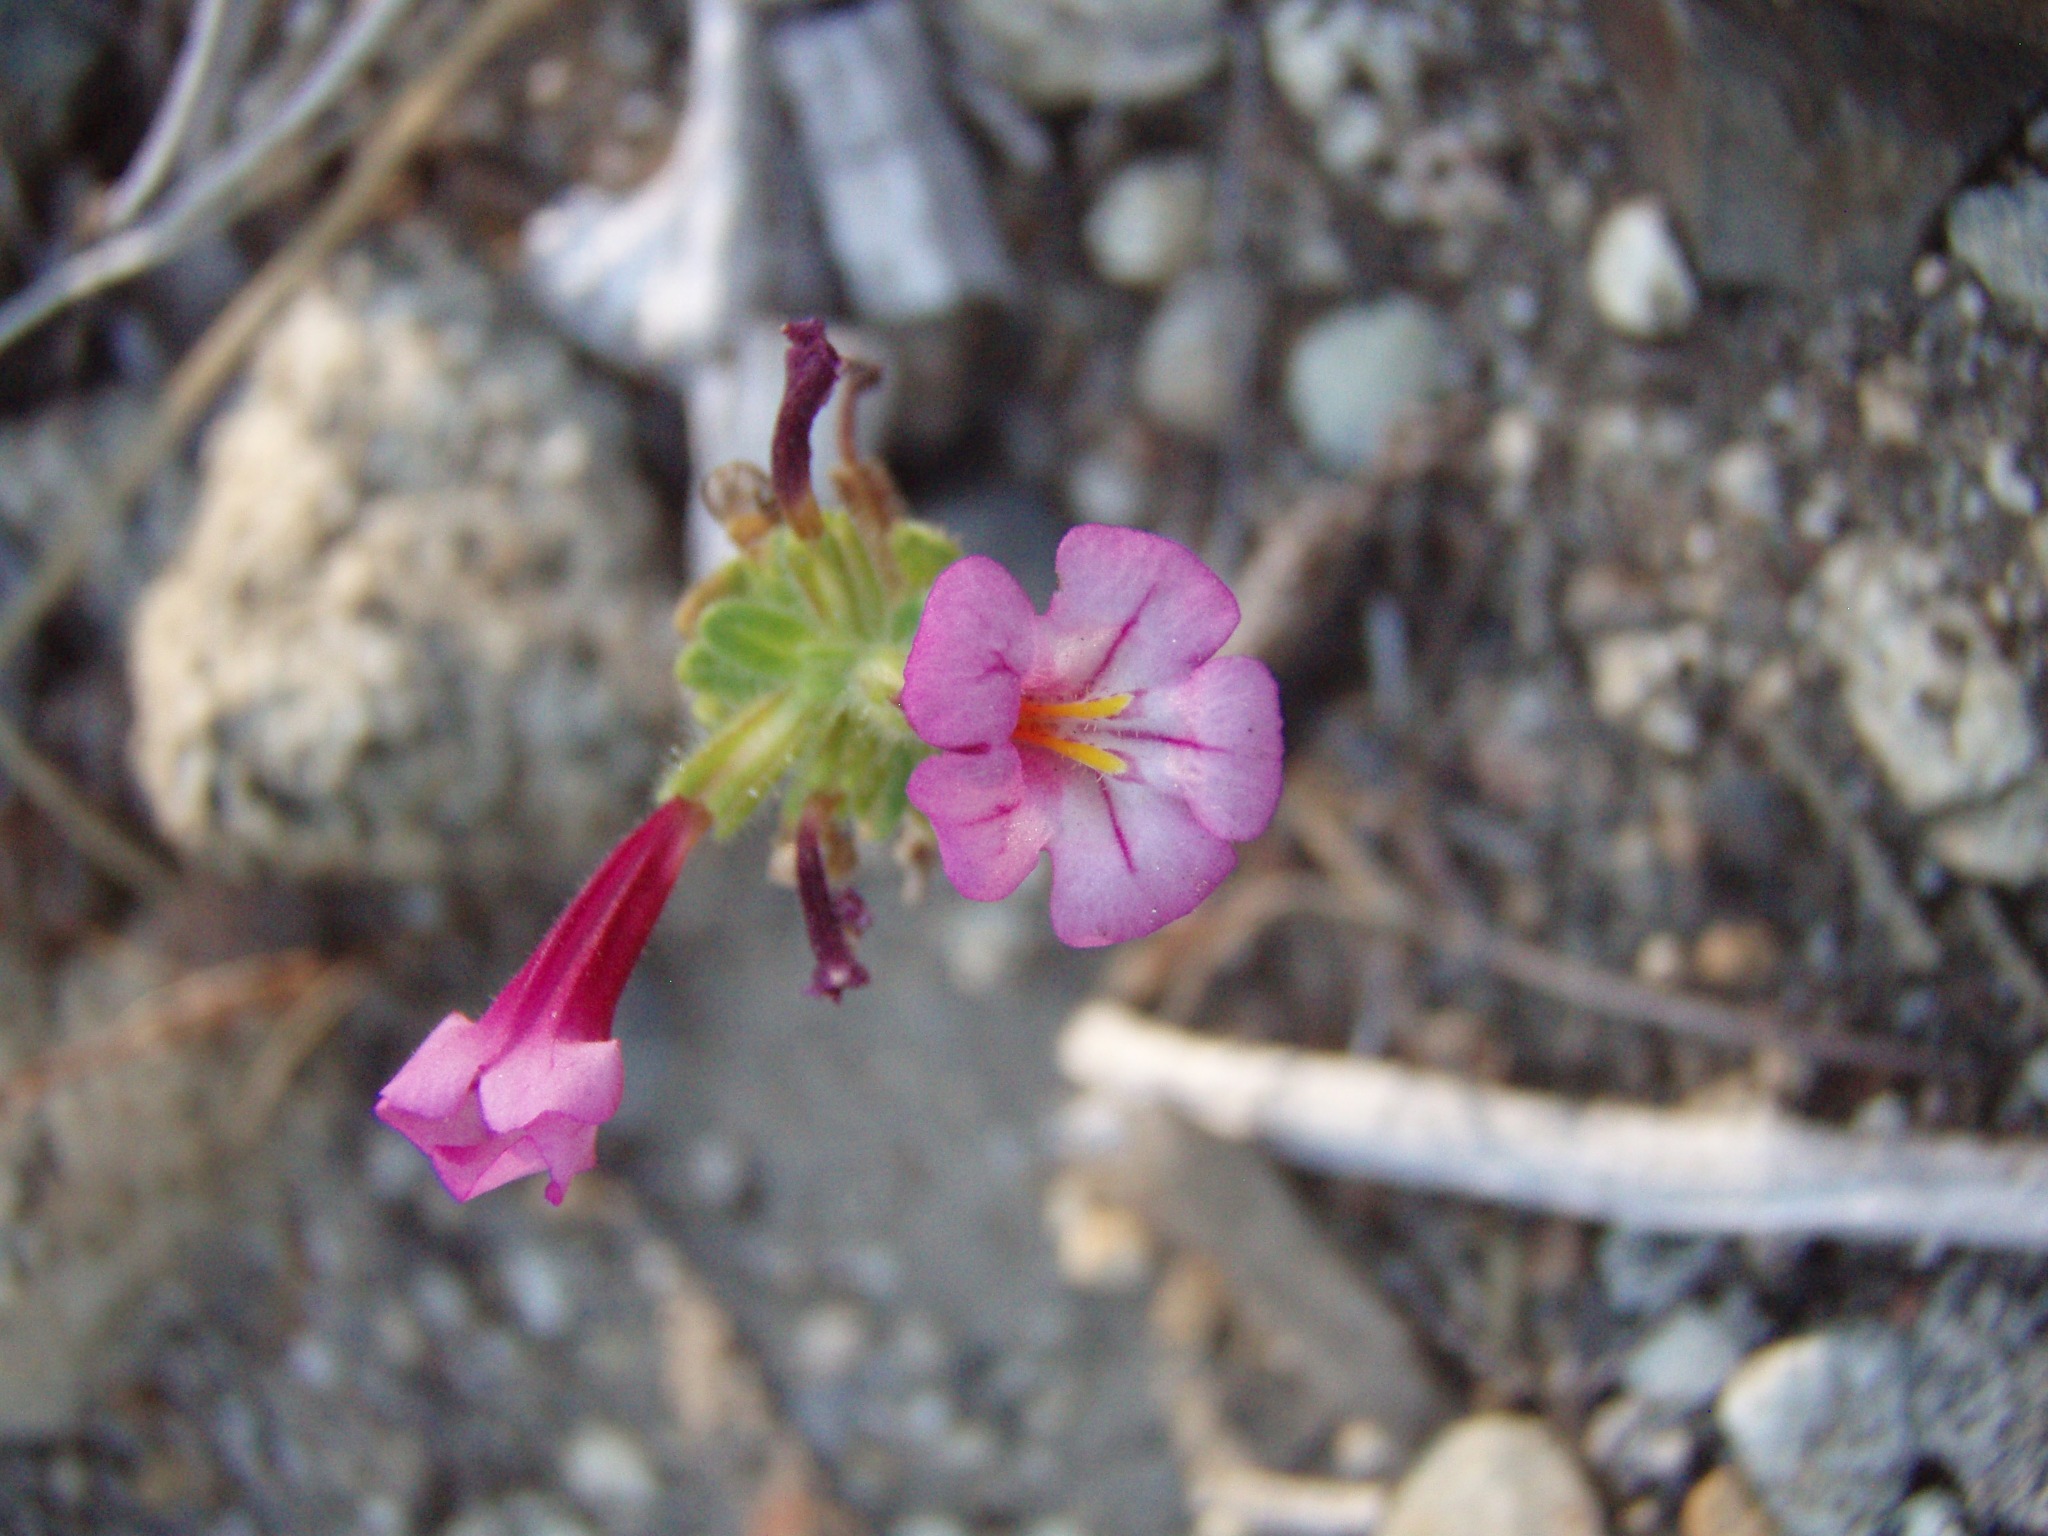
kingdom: Plantae
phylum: Tracheophyta
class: Magnoliopsida
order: Lamiales
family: Phrymaceae
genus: Diplacus
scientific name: Diplacus torreyi
